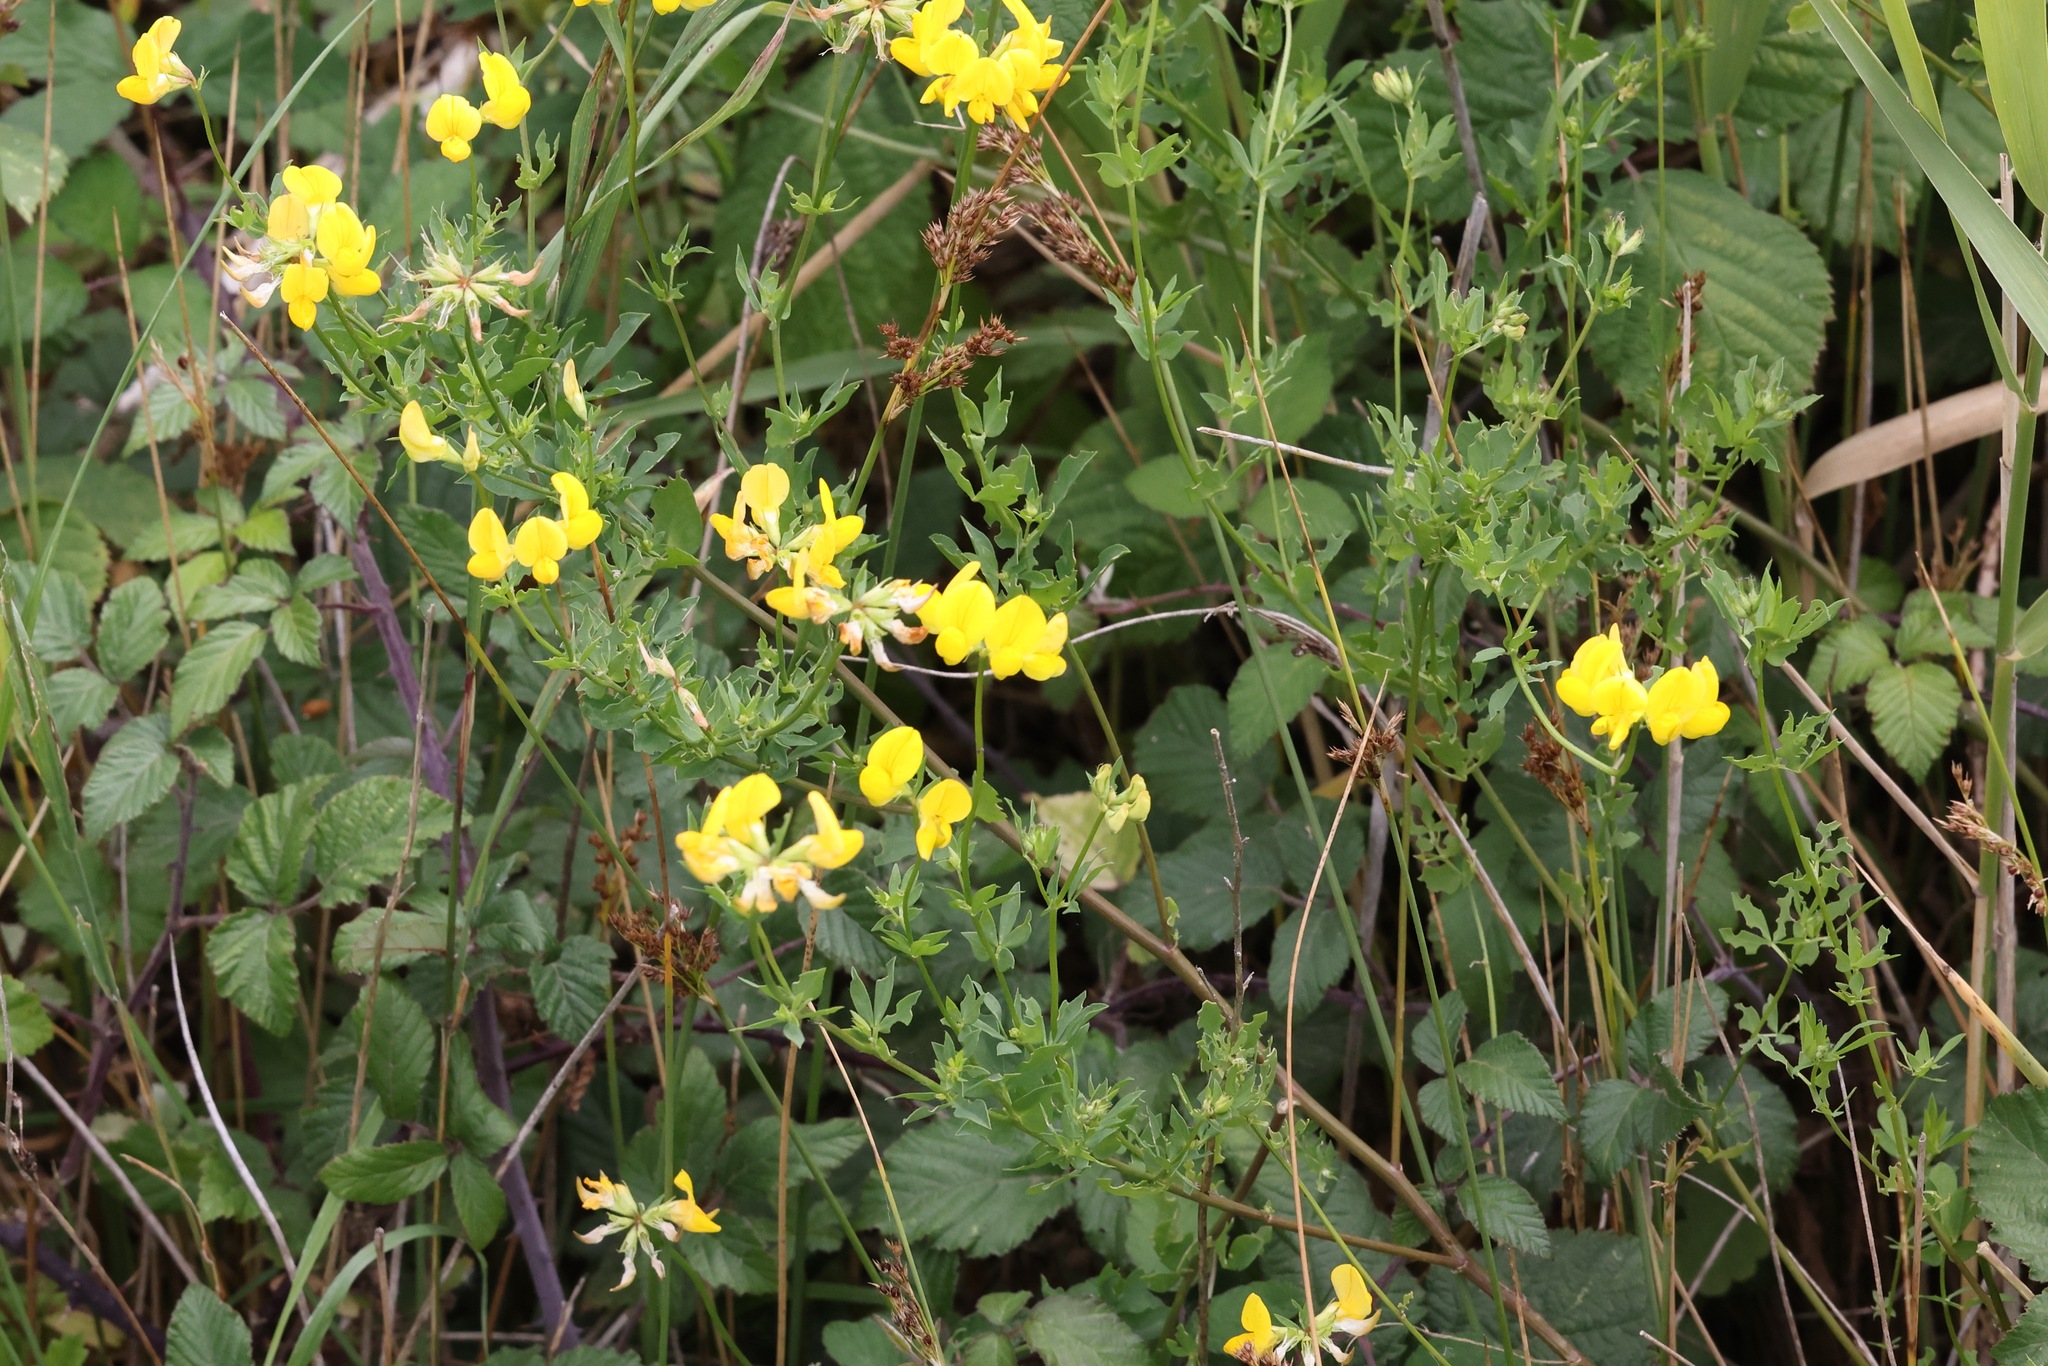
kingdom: Plantae
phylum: Tracheophyta
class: Magnoliopsida
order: Fabales
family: Fabaceae
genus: Lotus
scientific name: Lotus corniculatus
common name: Common bird's-foot-trefoil
